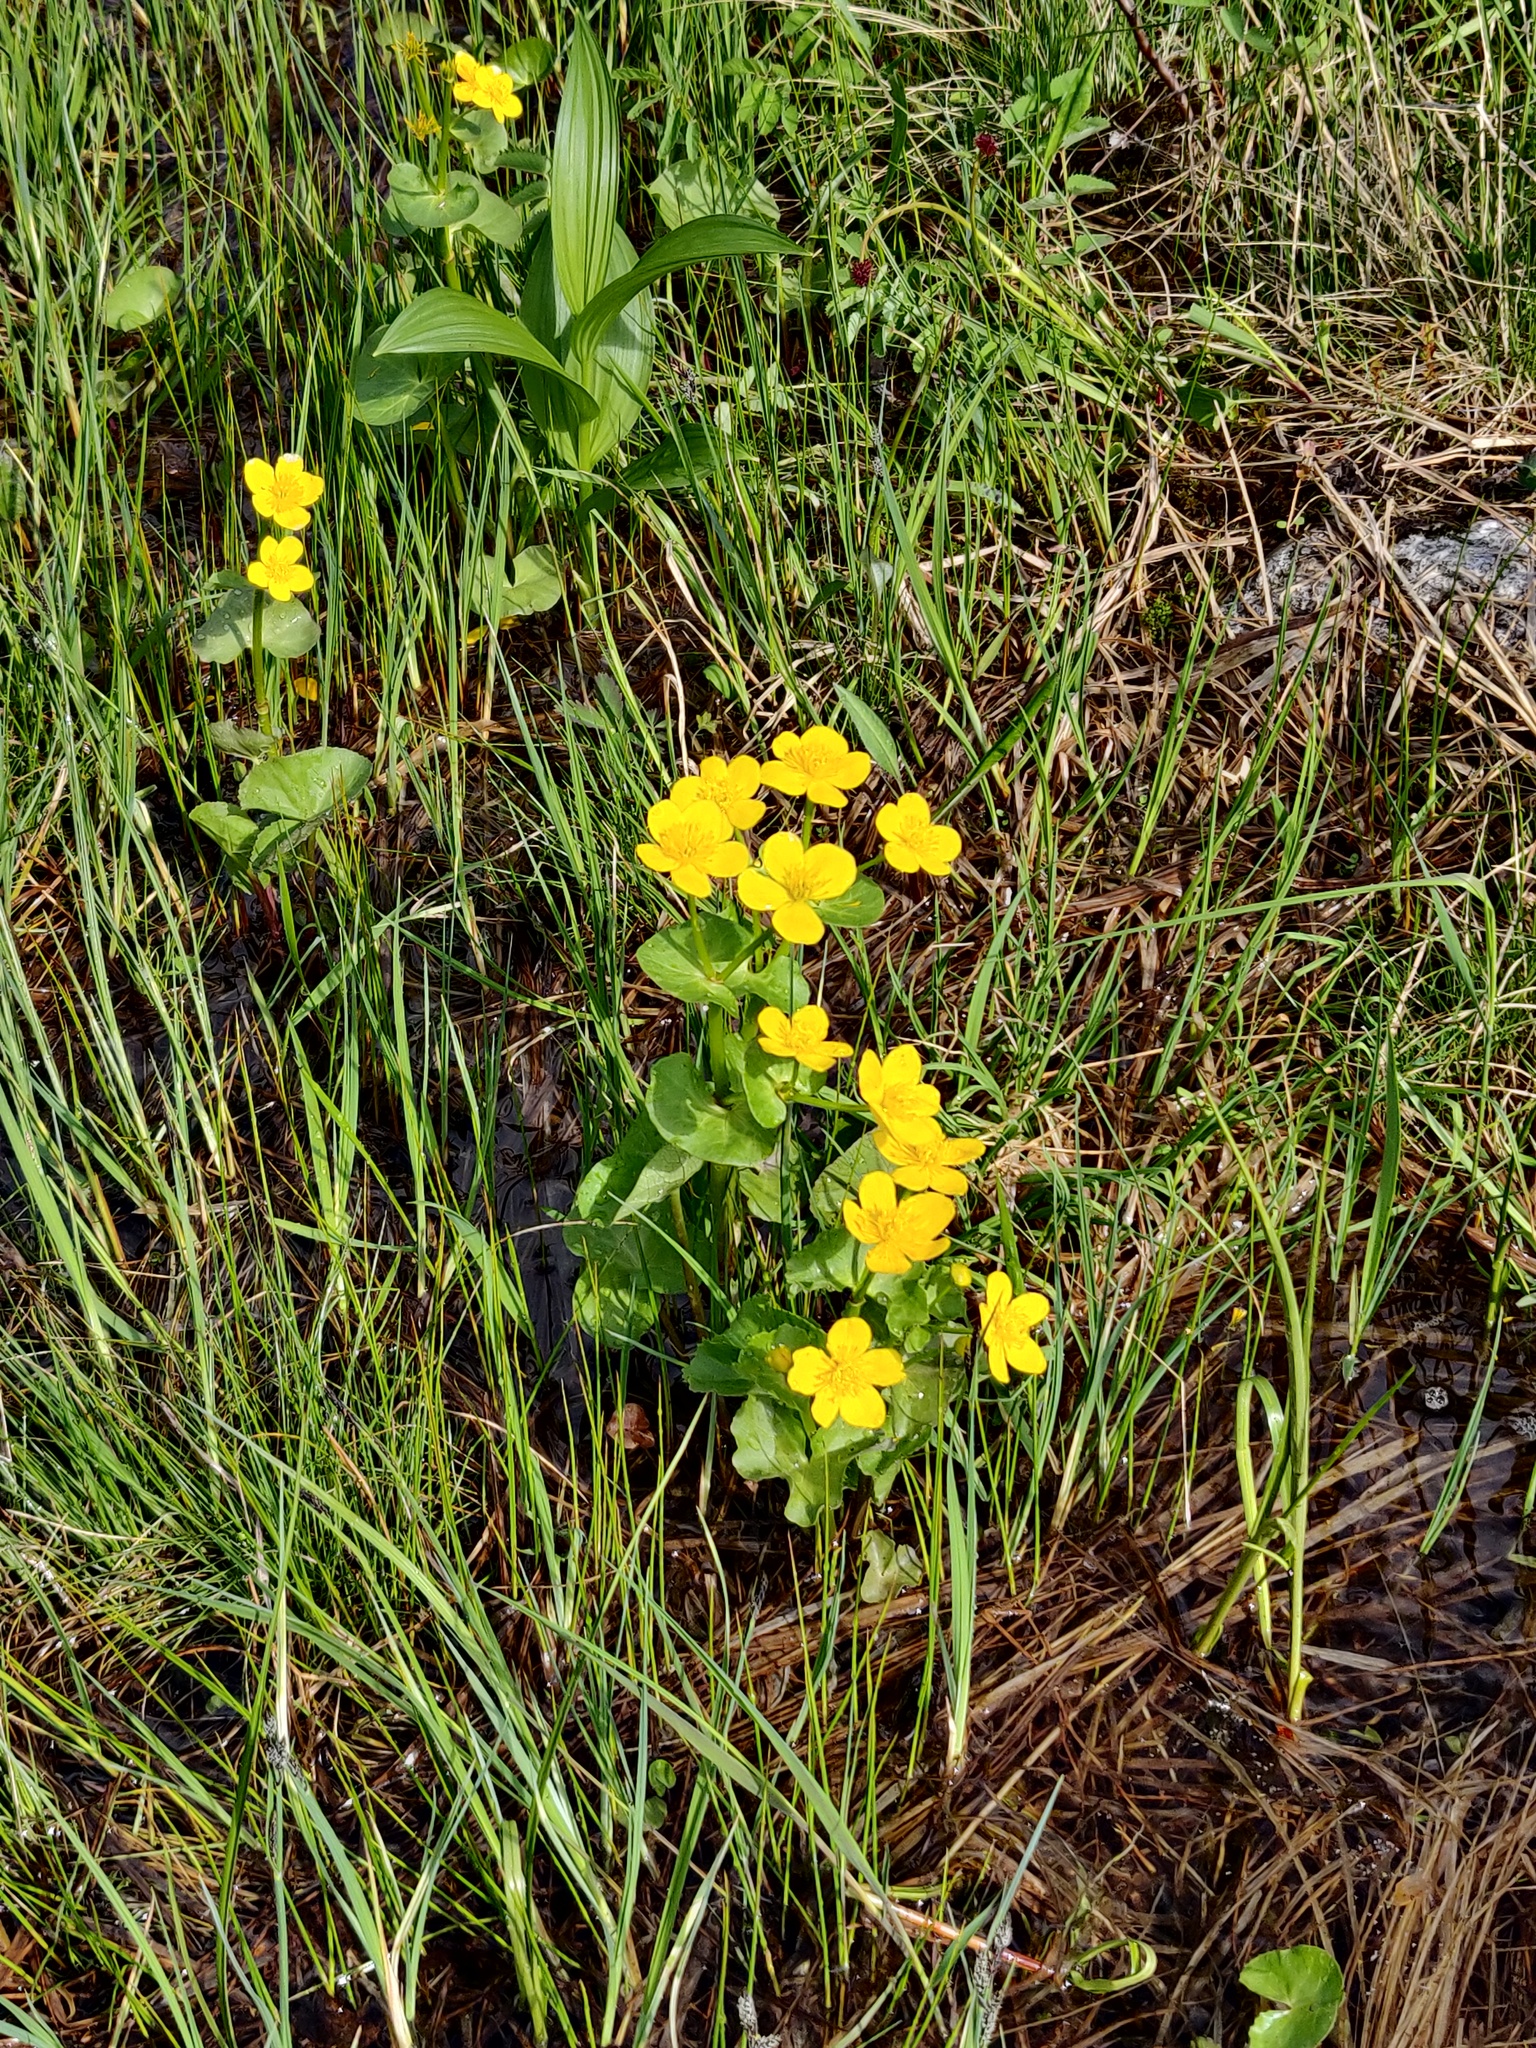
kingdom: Plantae
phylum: Tracheophyta
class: Magnoliopsida
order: Ranunculales
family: Ranunculaceae
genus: Caltha
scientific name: Caltha palustris
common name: Marsh marigold
